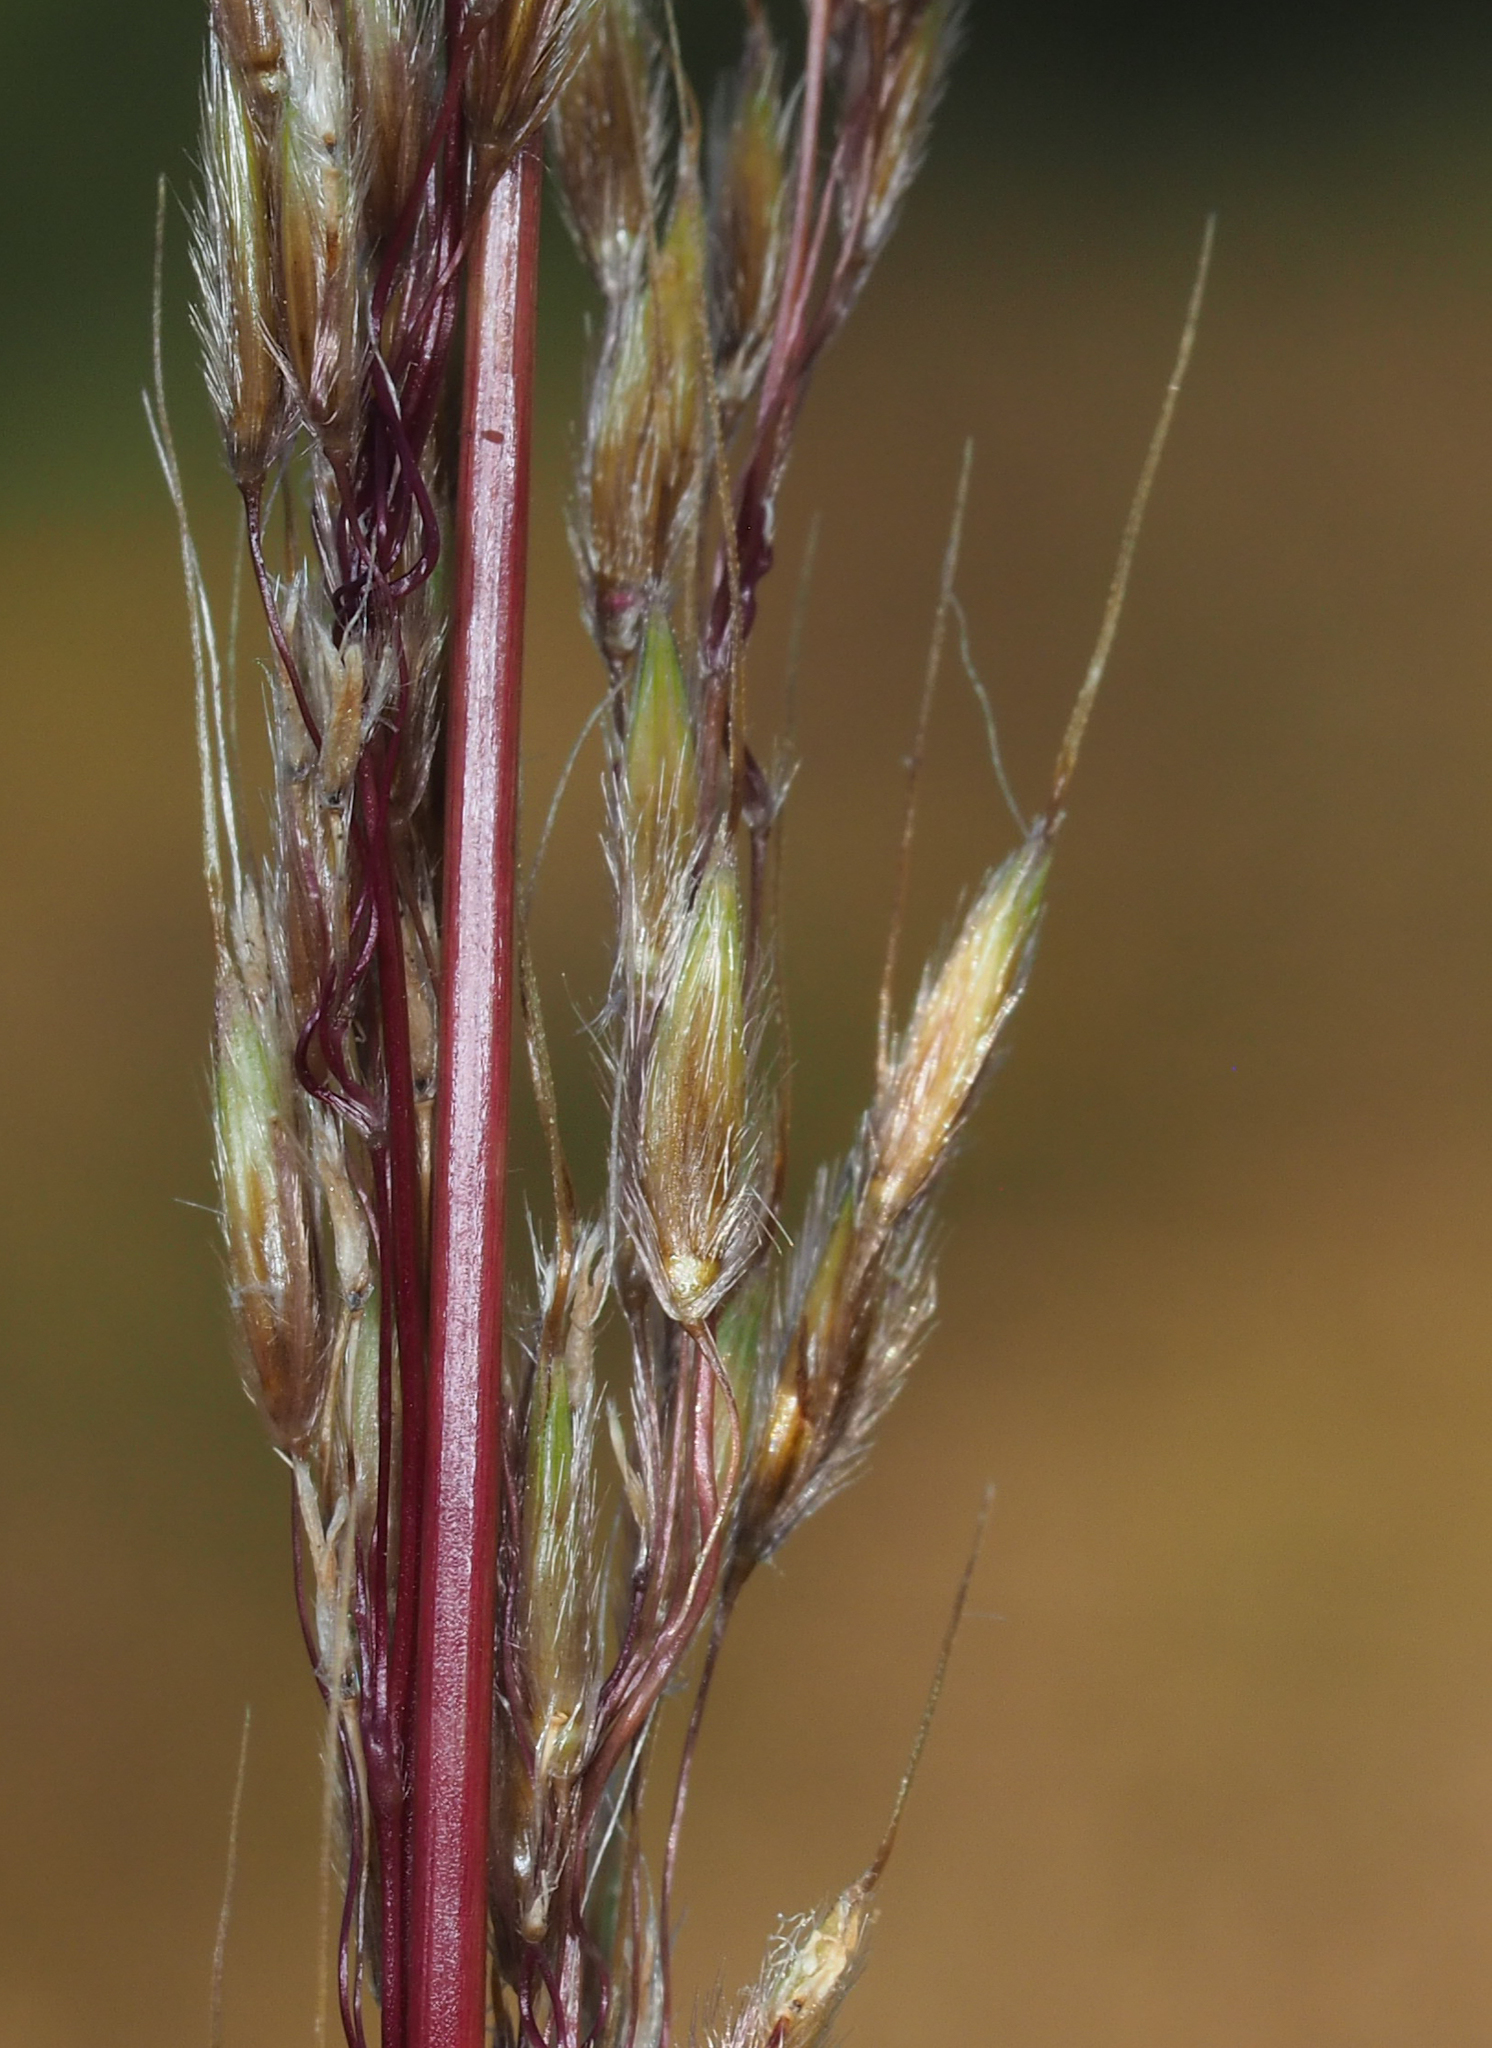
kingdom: Plantae
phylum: Tracheophyta
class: Liliopsida
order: Poales
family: Poaceae
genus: Sorghastrum
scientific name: Sorghastrum nutans
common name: Indian grass
